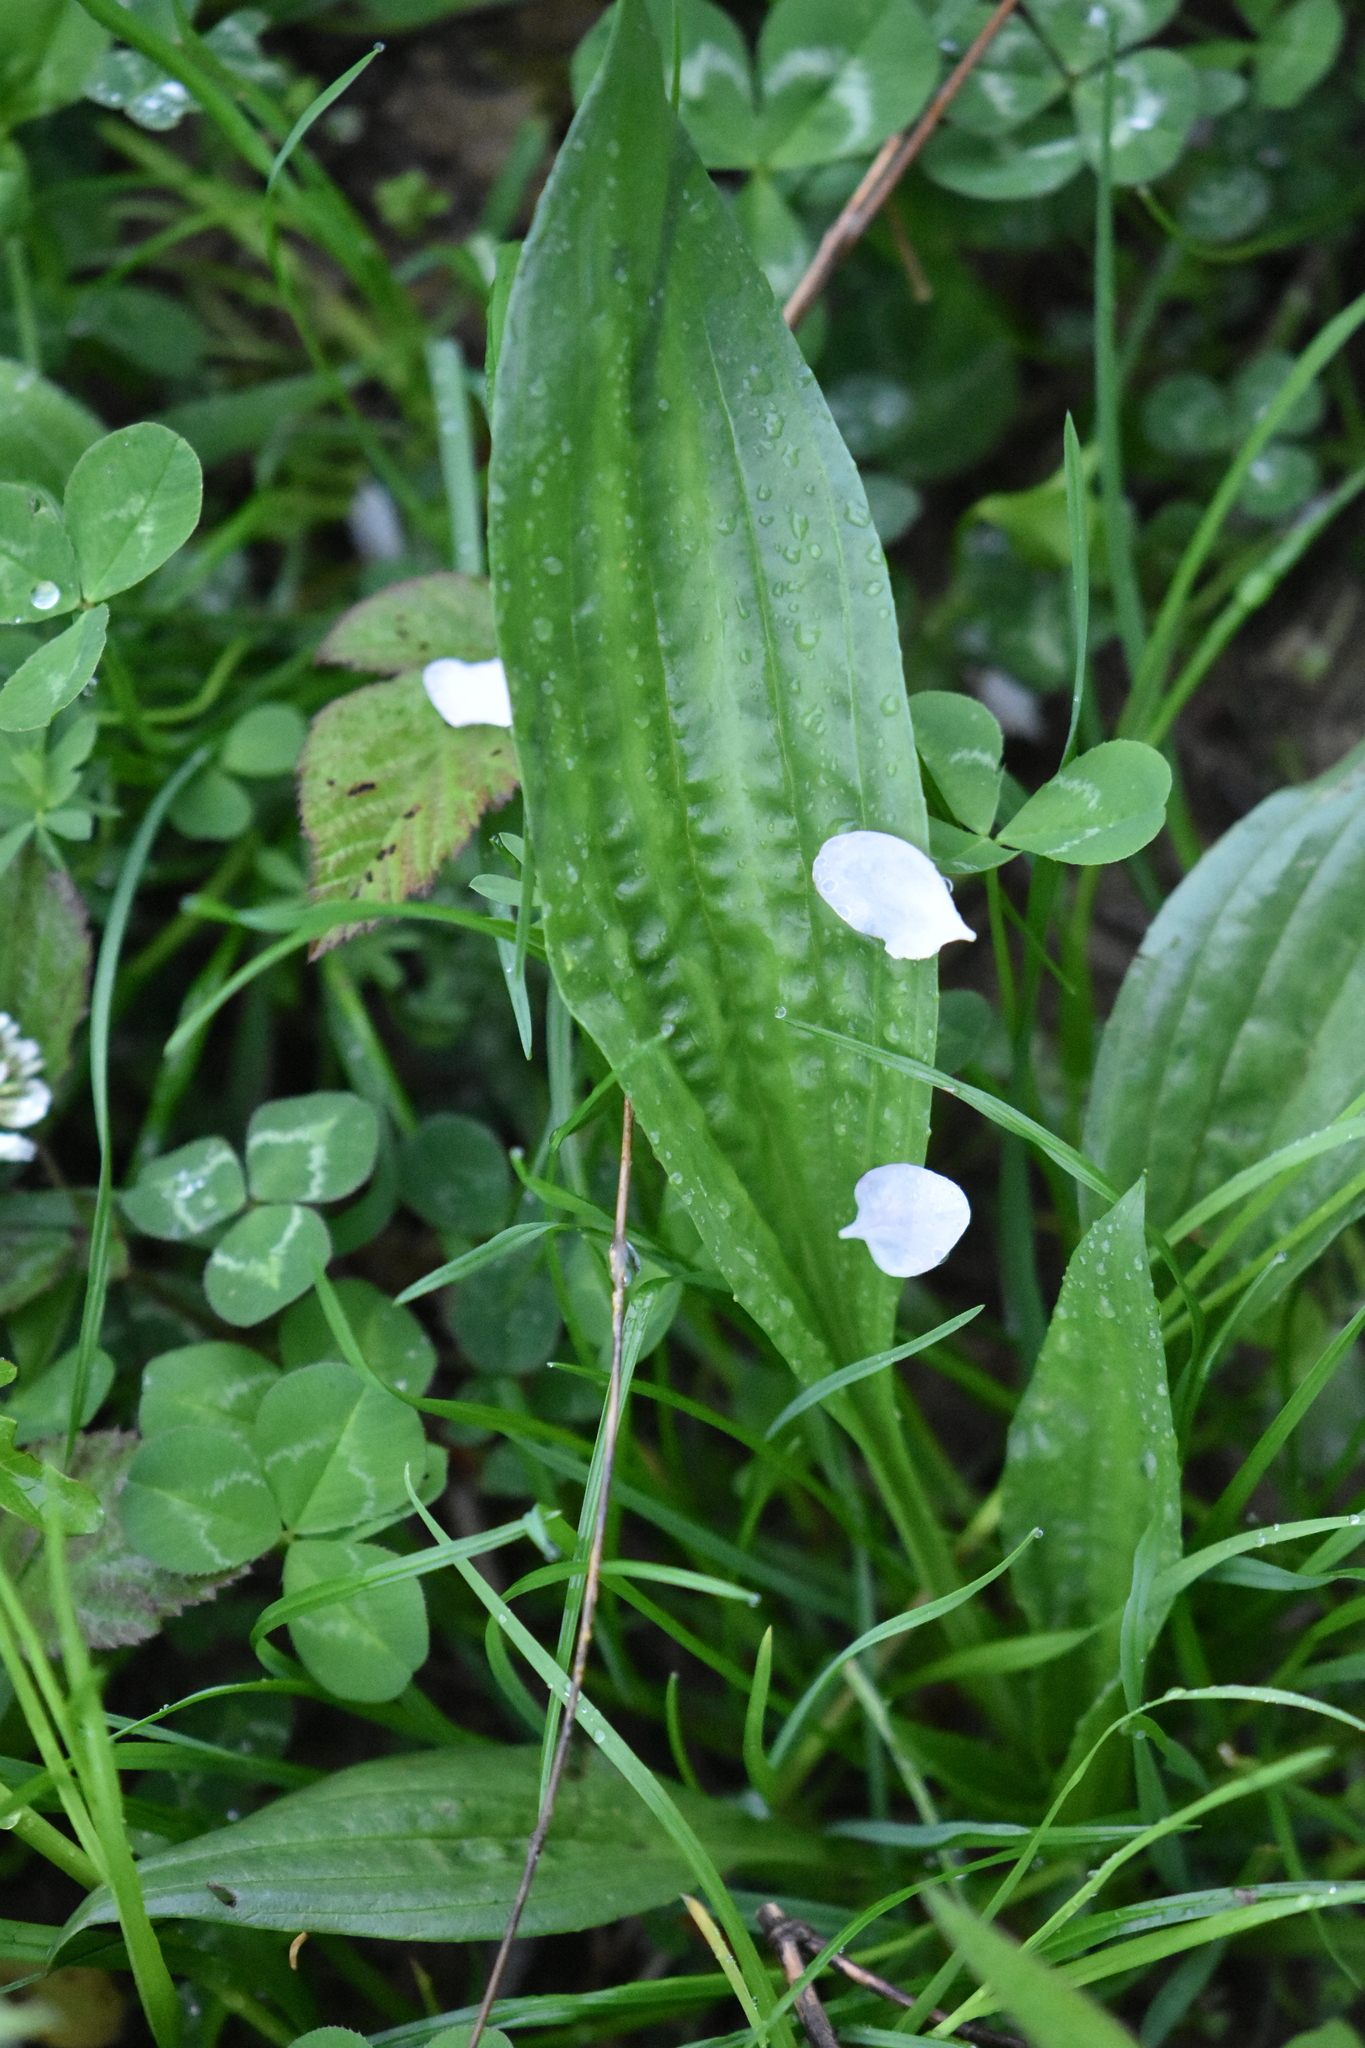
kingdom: Plantae
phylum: Tracheophyta
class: Magnoliopsida
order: Lamiales
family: Plantaginaceae
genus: Plantago
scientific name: Plantago lanceolata
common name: Ribwort plantain
